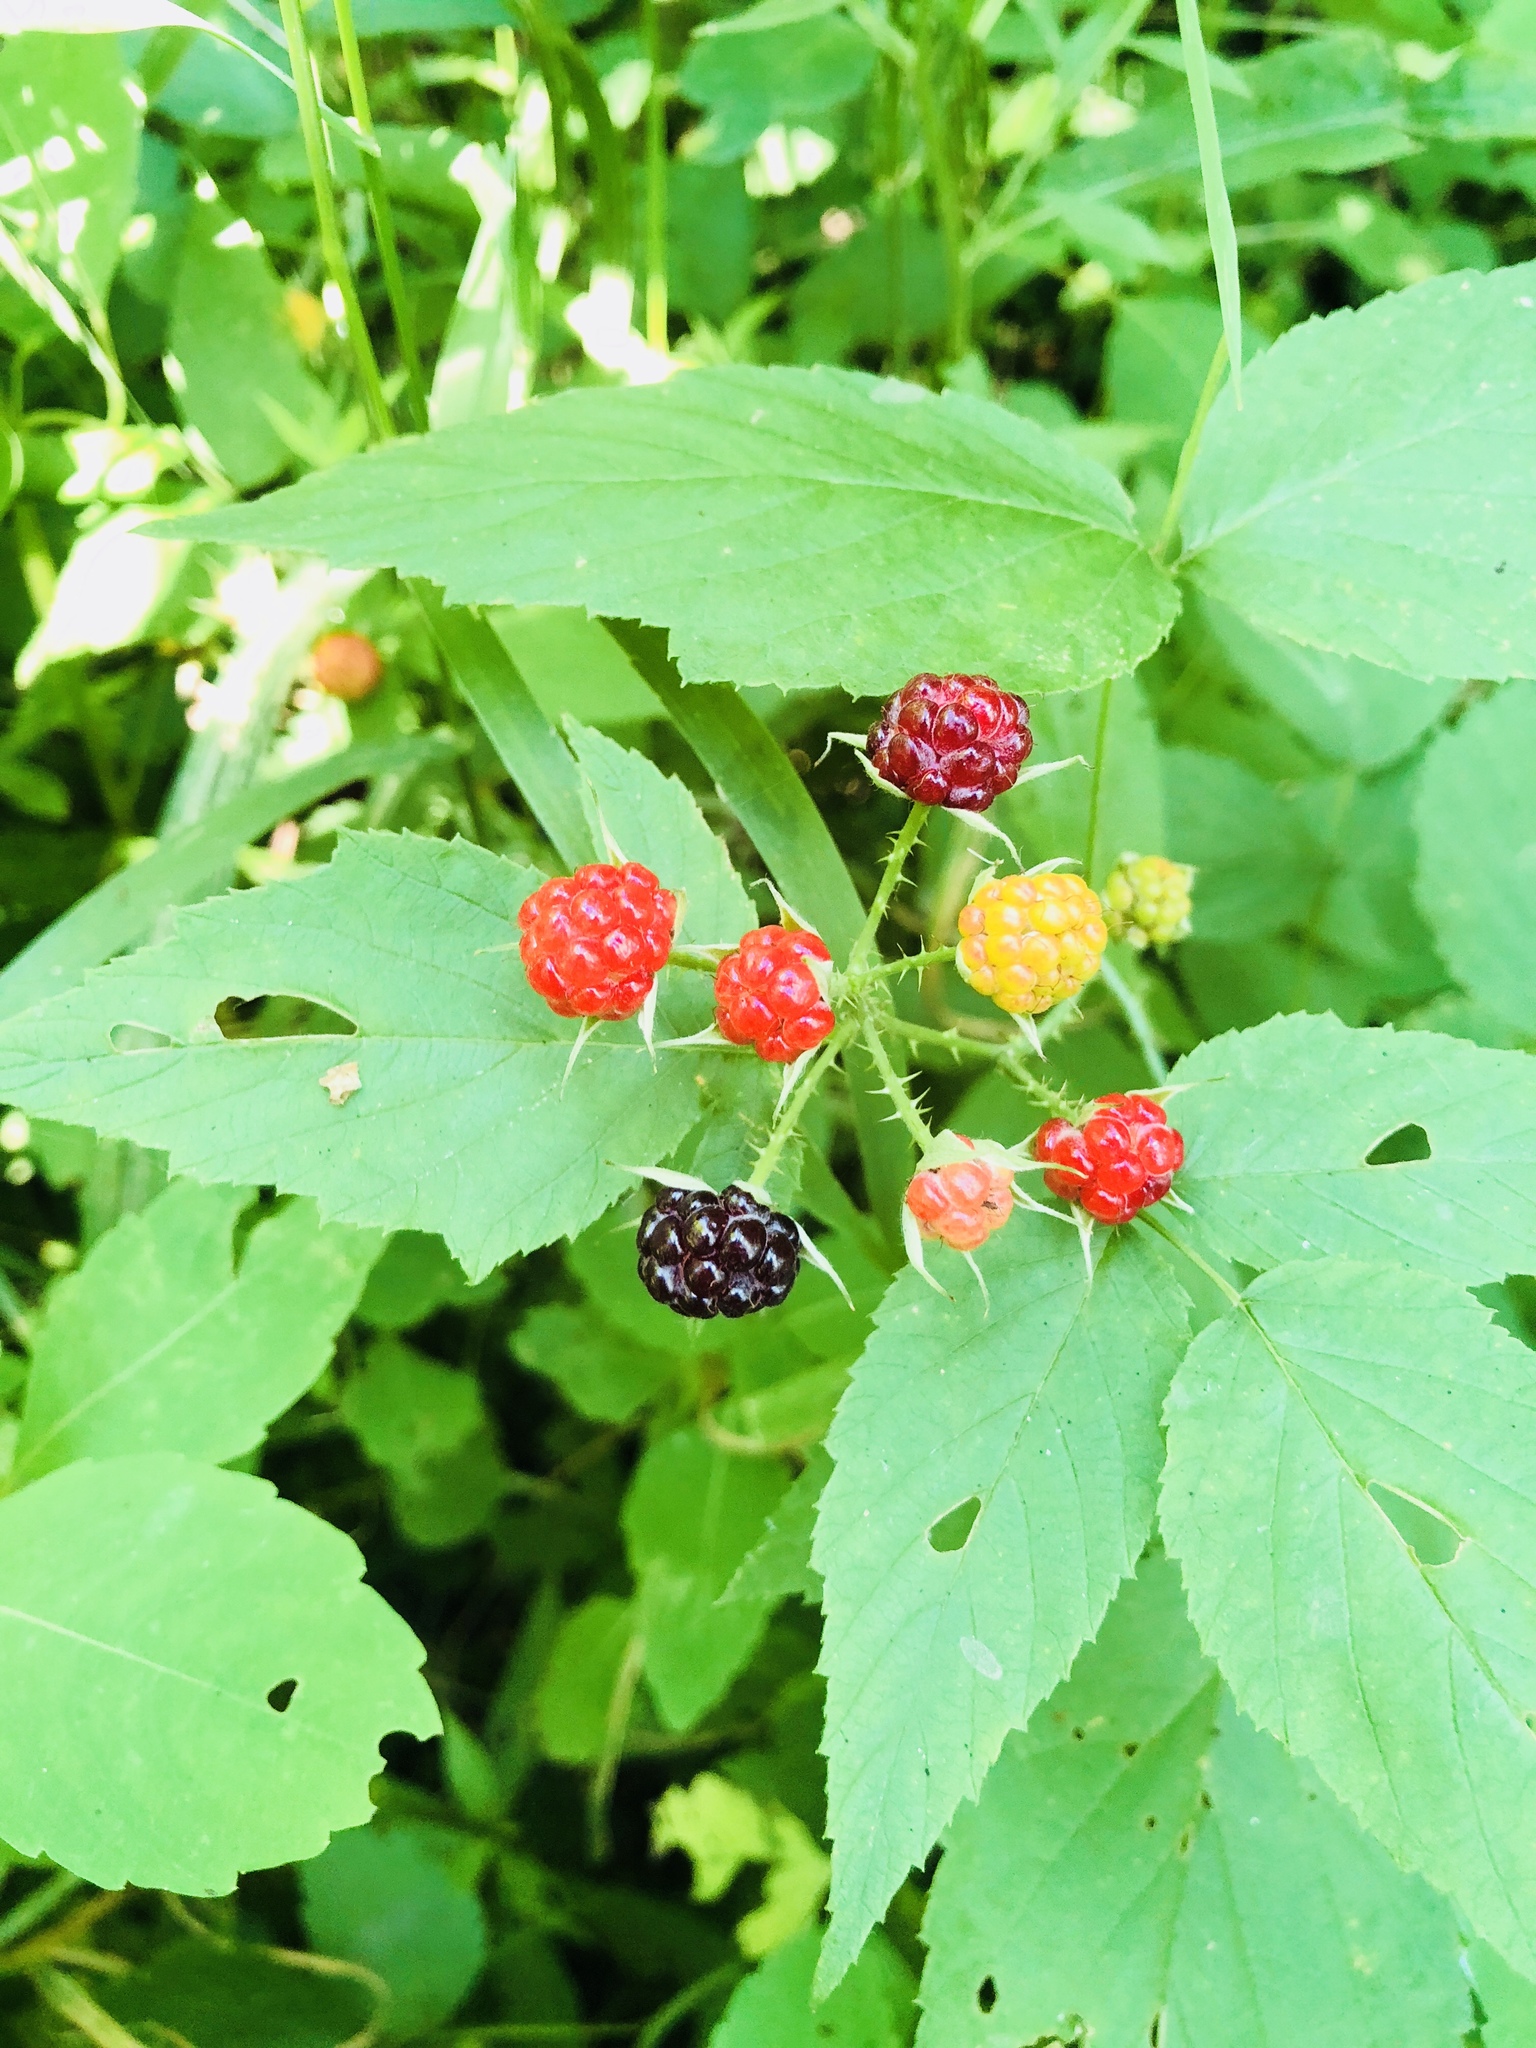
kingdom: Plantae
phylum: Tracheophyta
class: Magnoliopsida
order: Rosales
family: Rosaceae
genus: Rubus
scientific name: Rubus occidentalis
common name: Black raspberry
